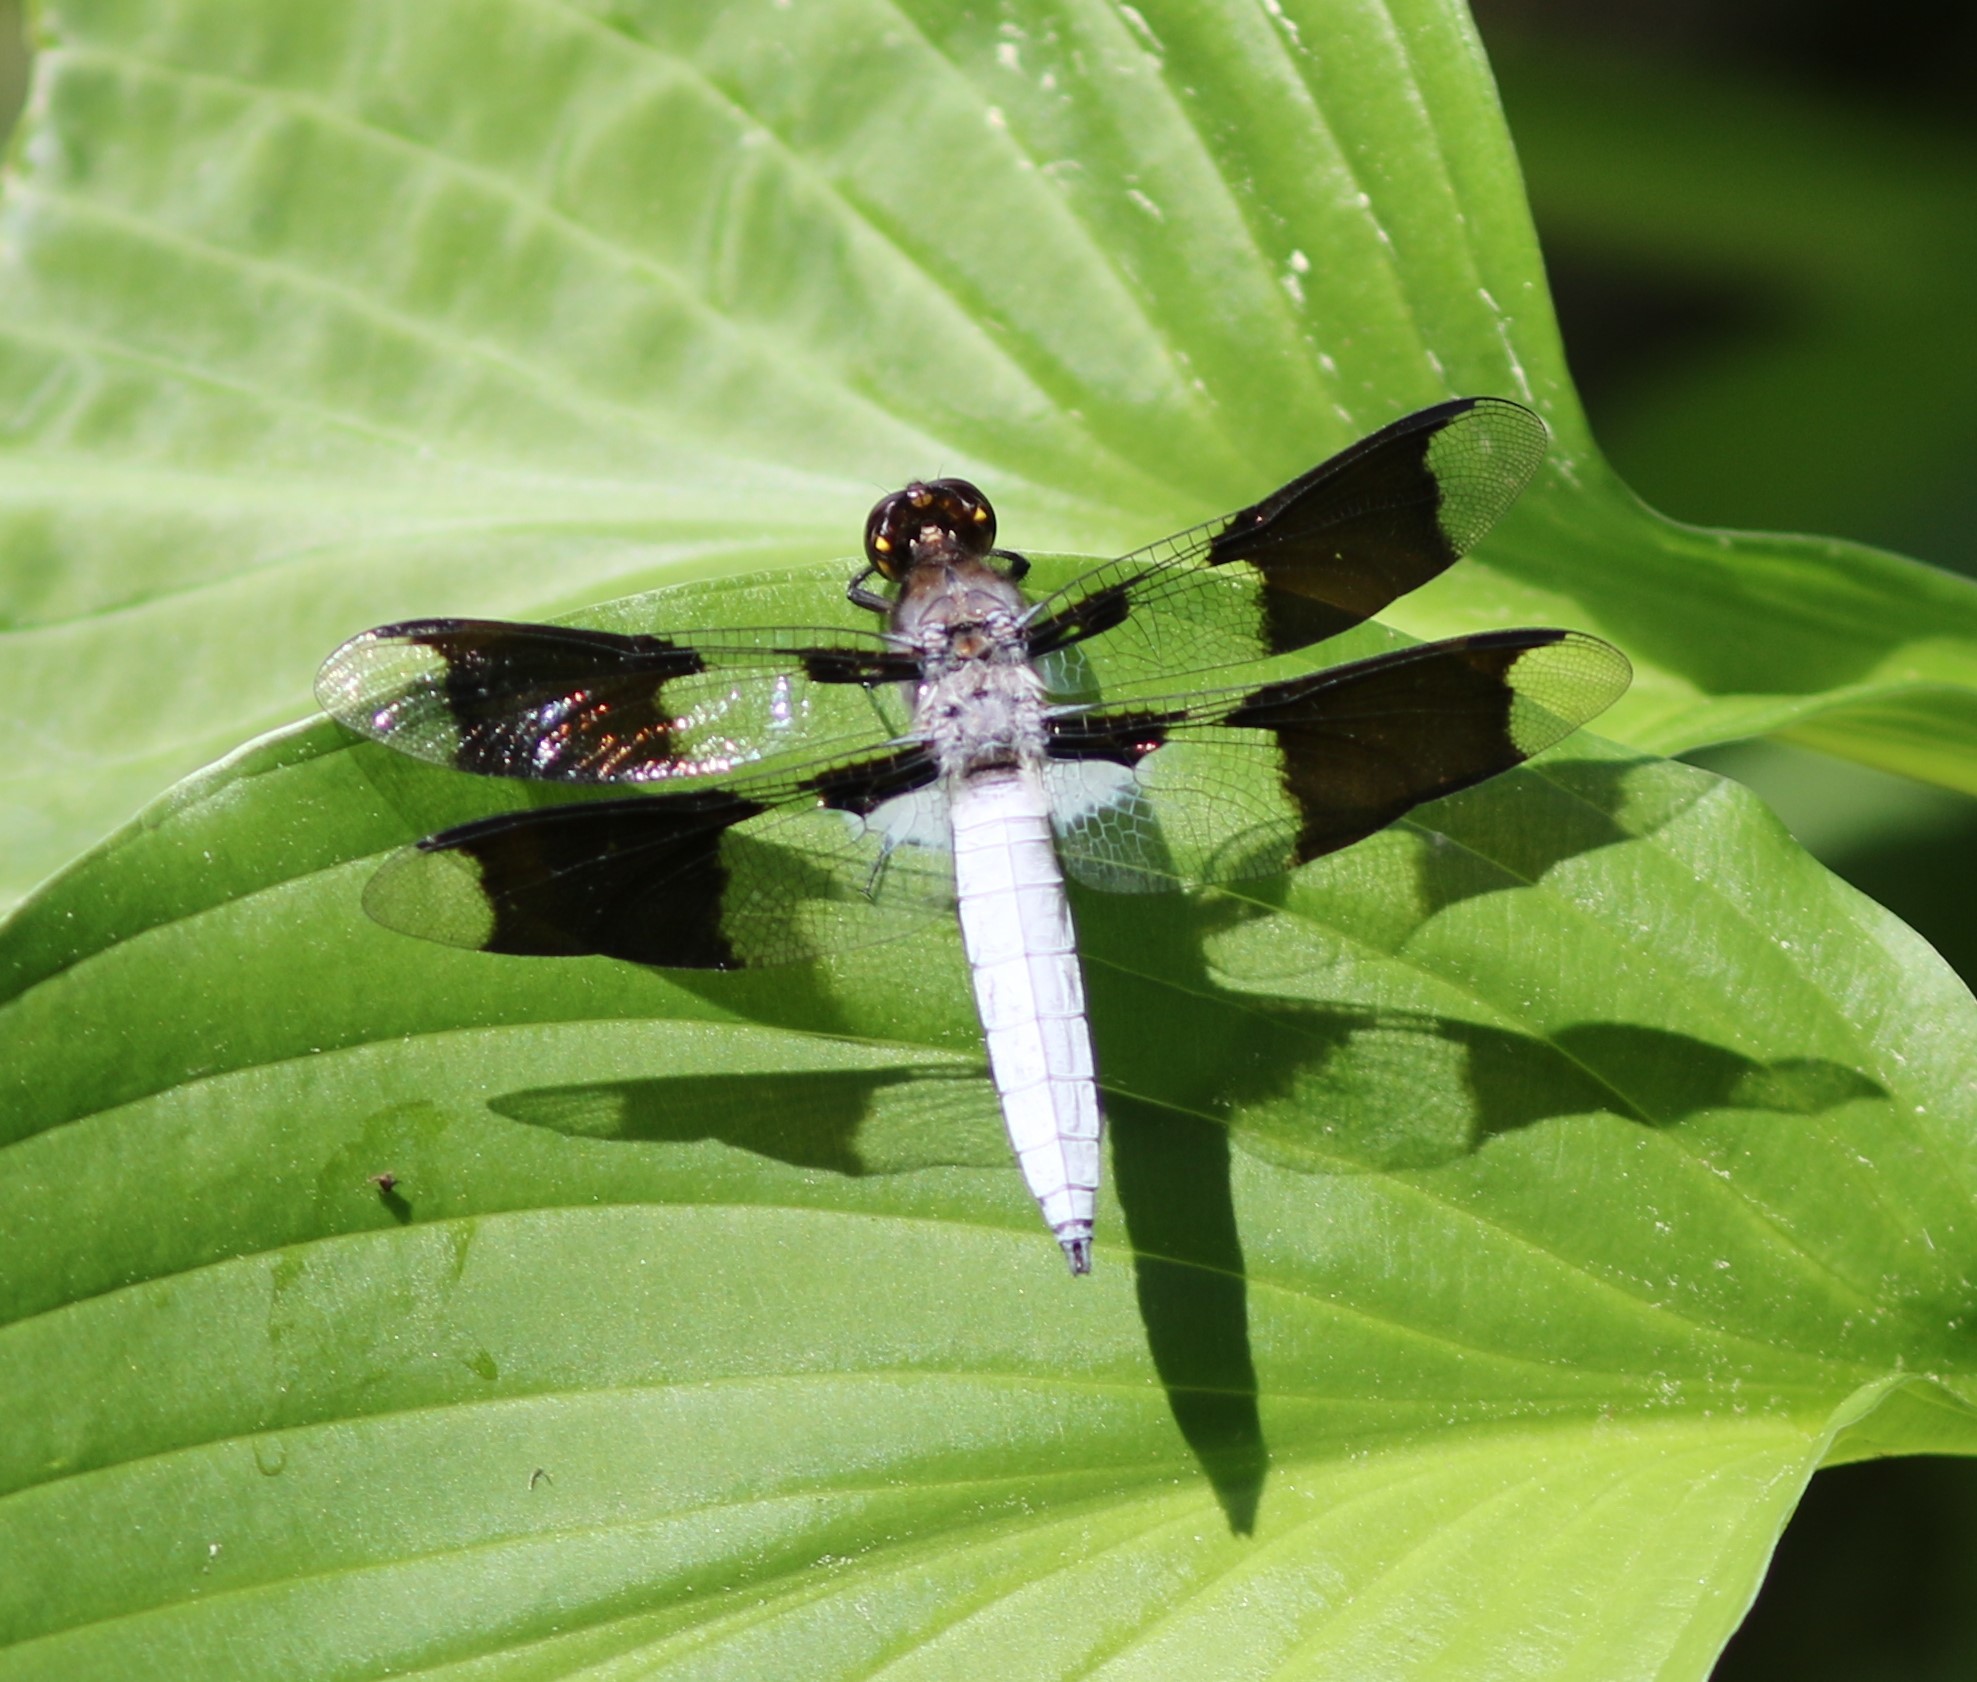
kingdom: Animalia
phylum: Arthropoda
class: Insecta
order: Odonata
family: Libellulidae
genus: Plathemis
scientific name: Plathemis lydia
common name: Common whitetail
